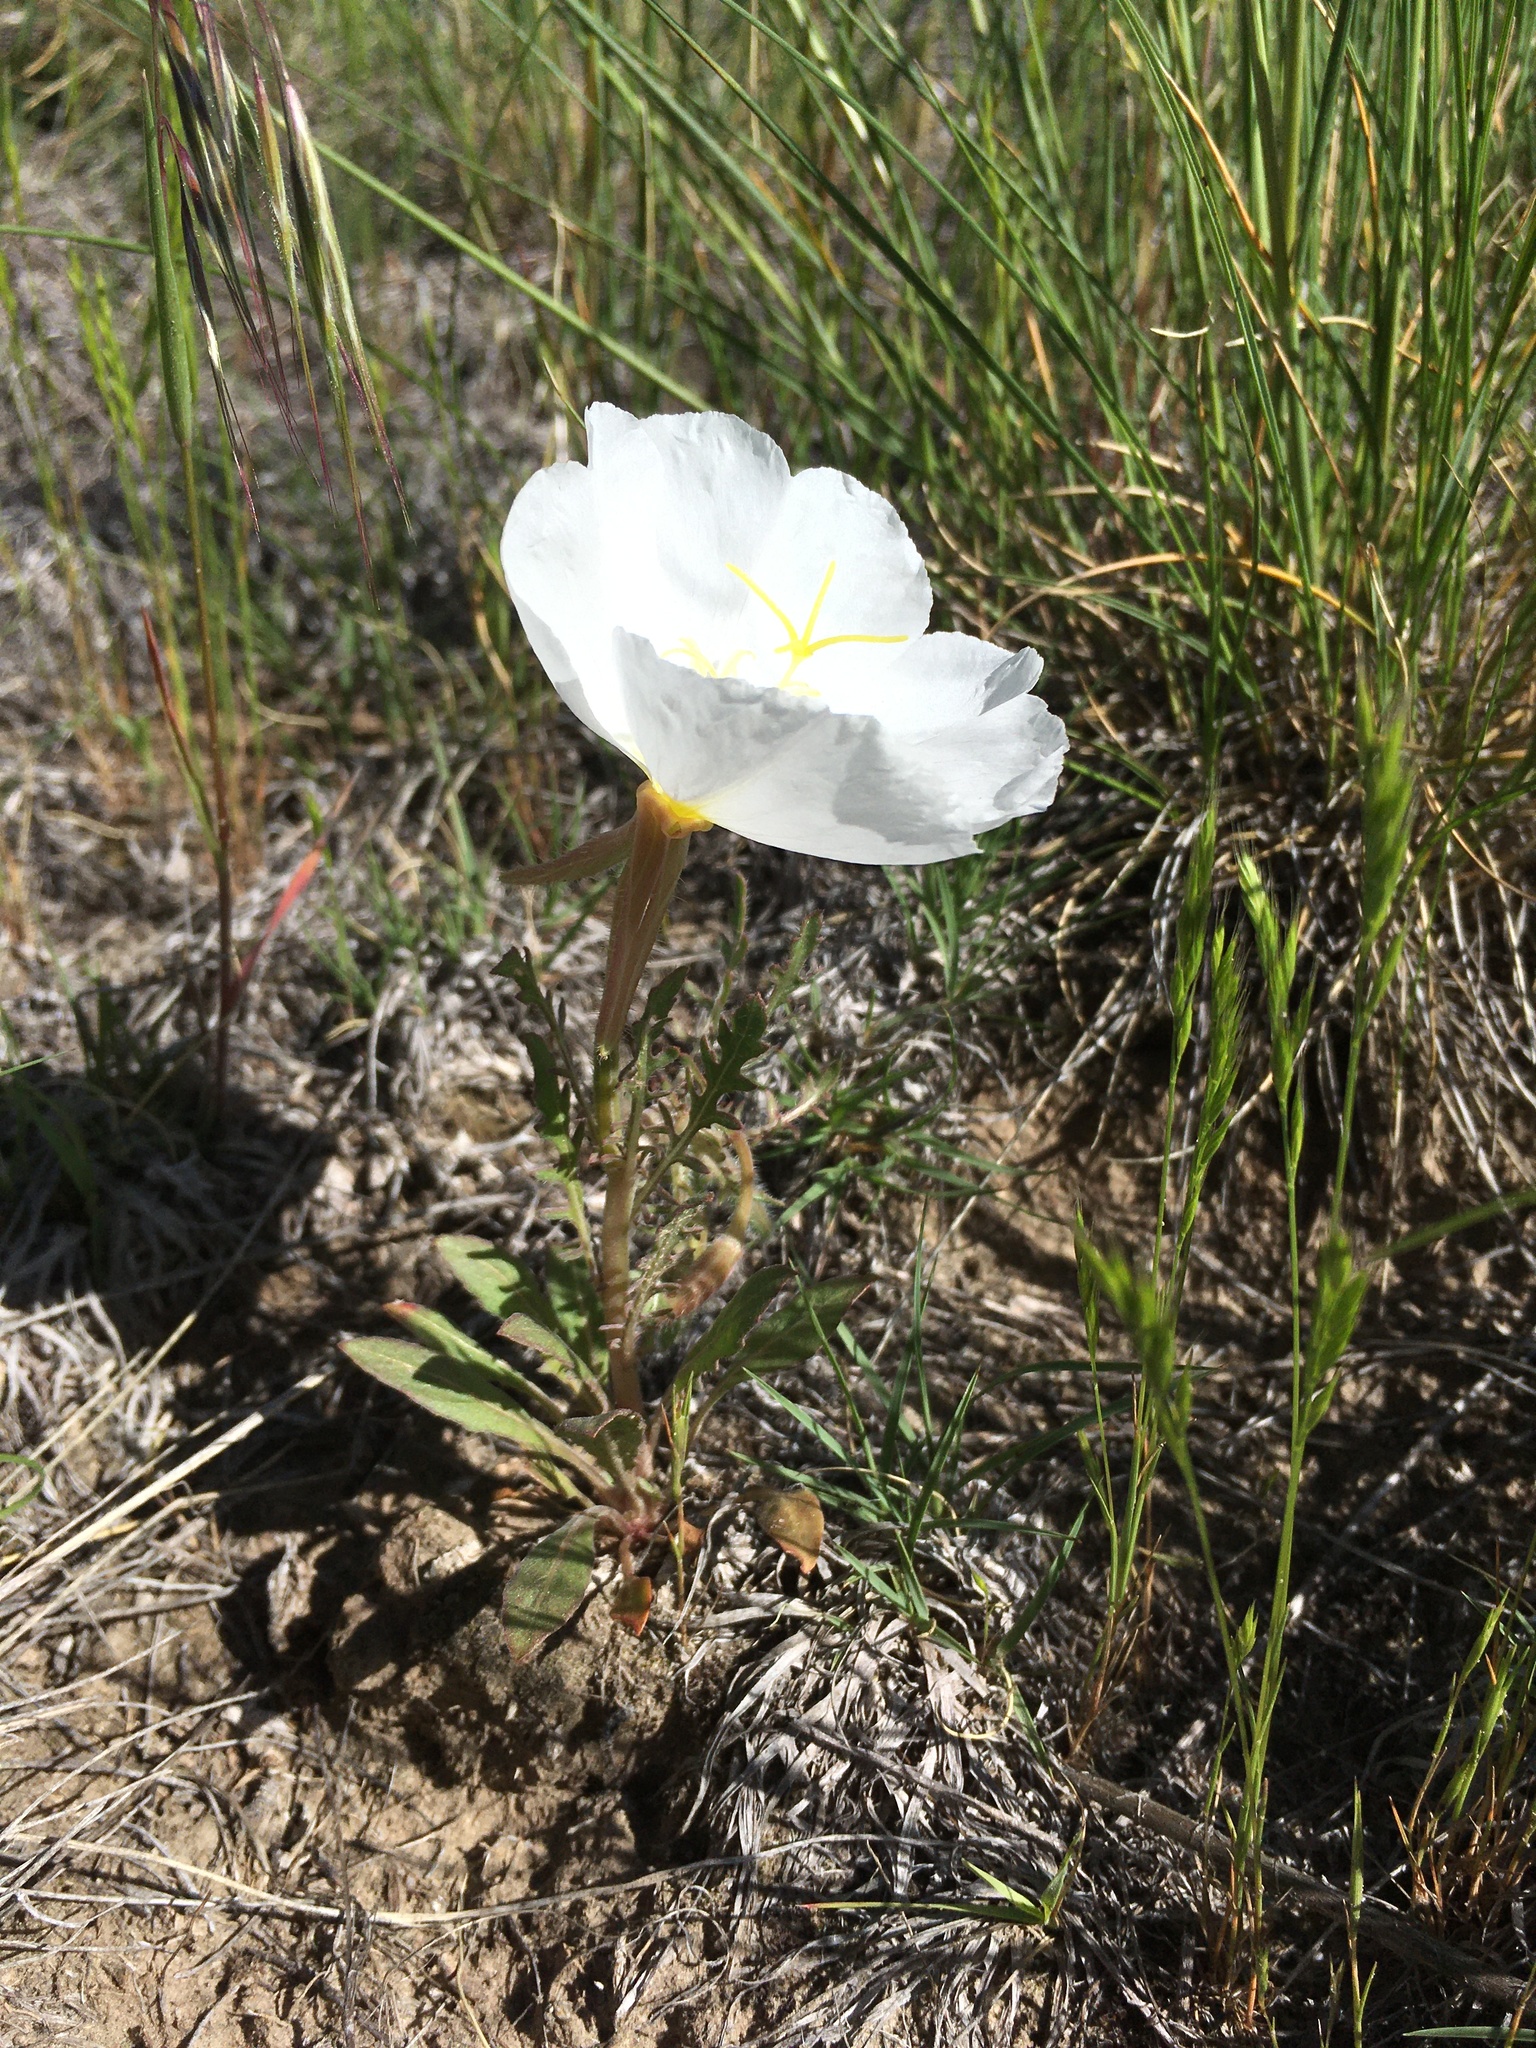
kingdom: Plantae
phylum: Tracheophyta
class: Magnoliopsida
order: Myrtales
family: Onagraceae
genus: Oenothera
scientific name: Oenothera albicaulis
